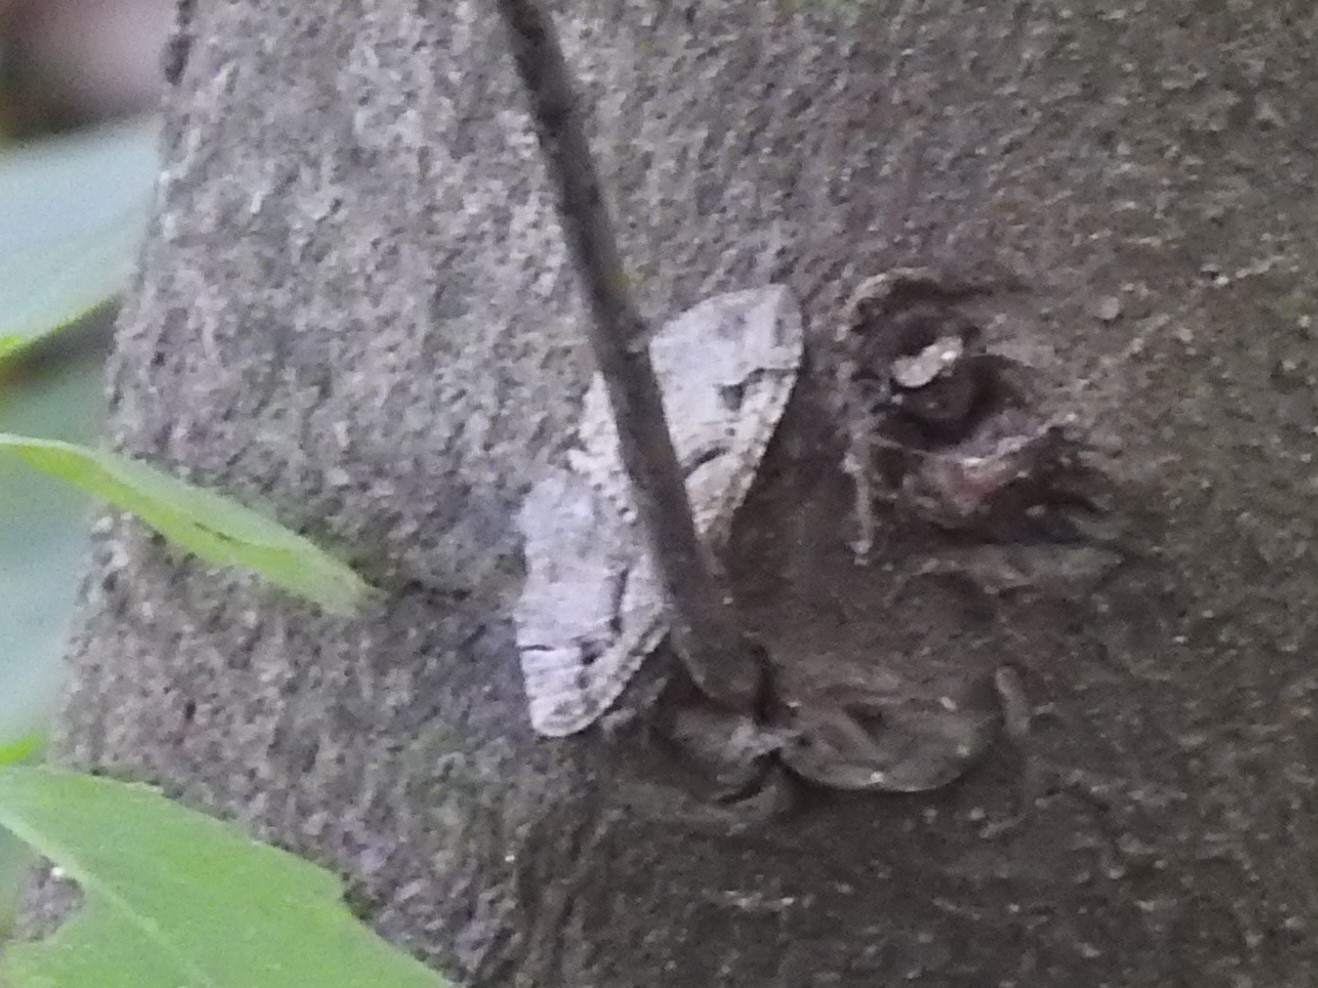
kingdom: Animalia
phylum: Arthropoda
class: Insecta
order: Lepidoptera
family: Geometridae
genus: Costaconvexa
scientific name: Costaconvexa centrostrigaria
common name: Bent-line carpet
